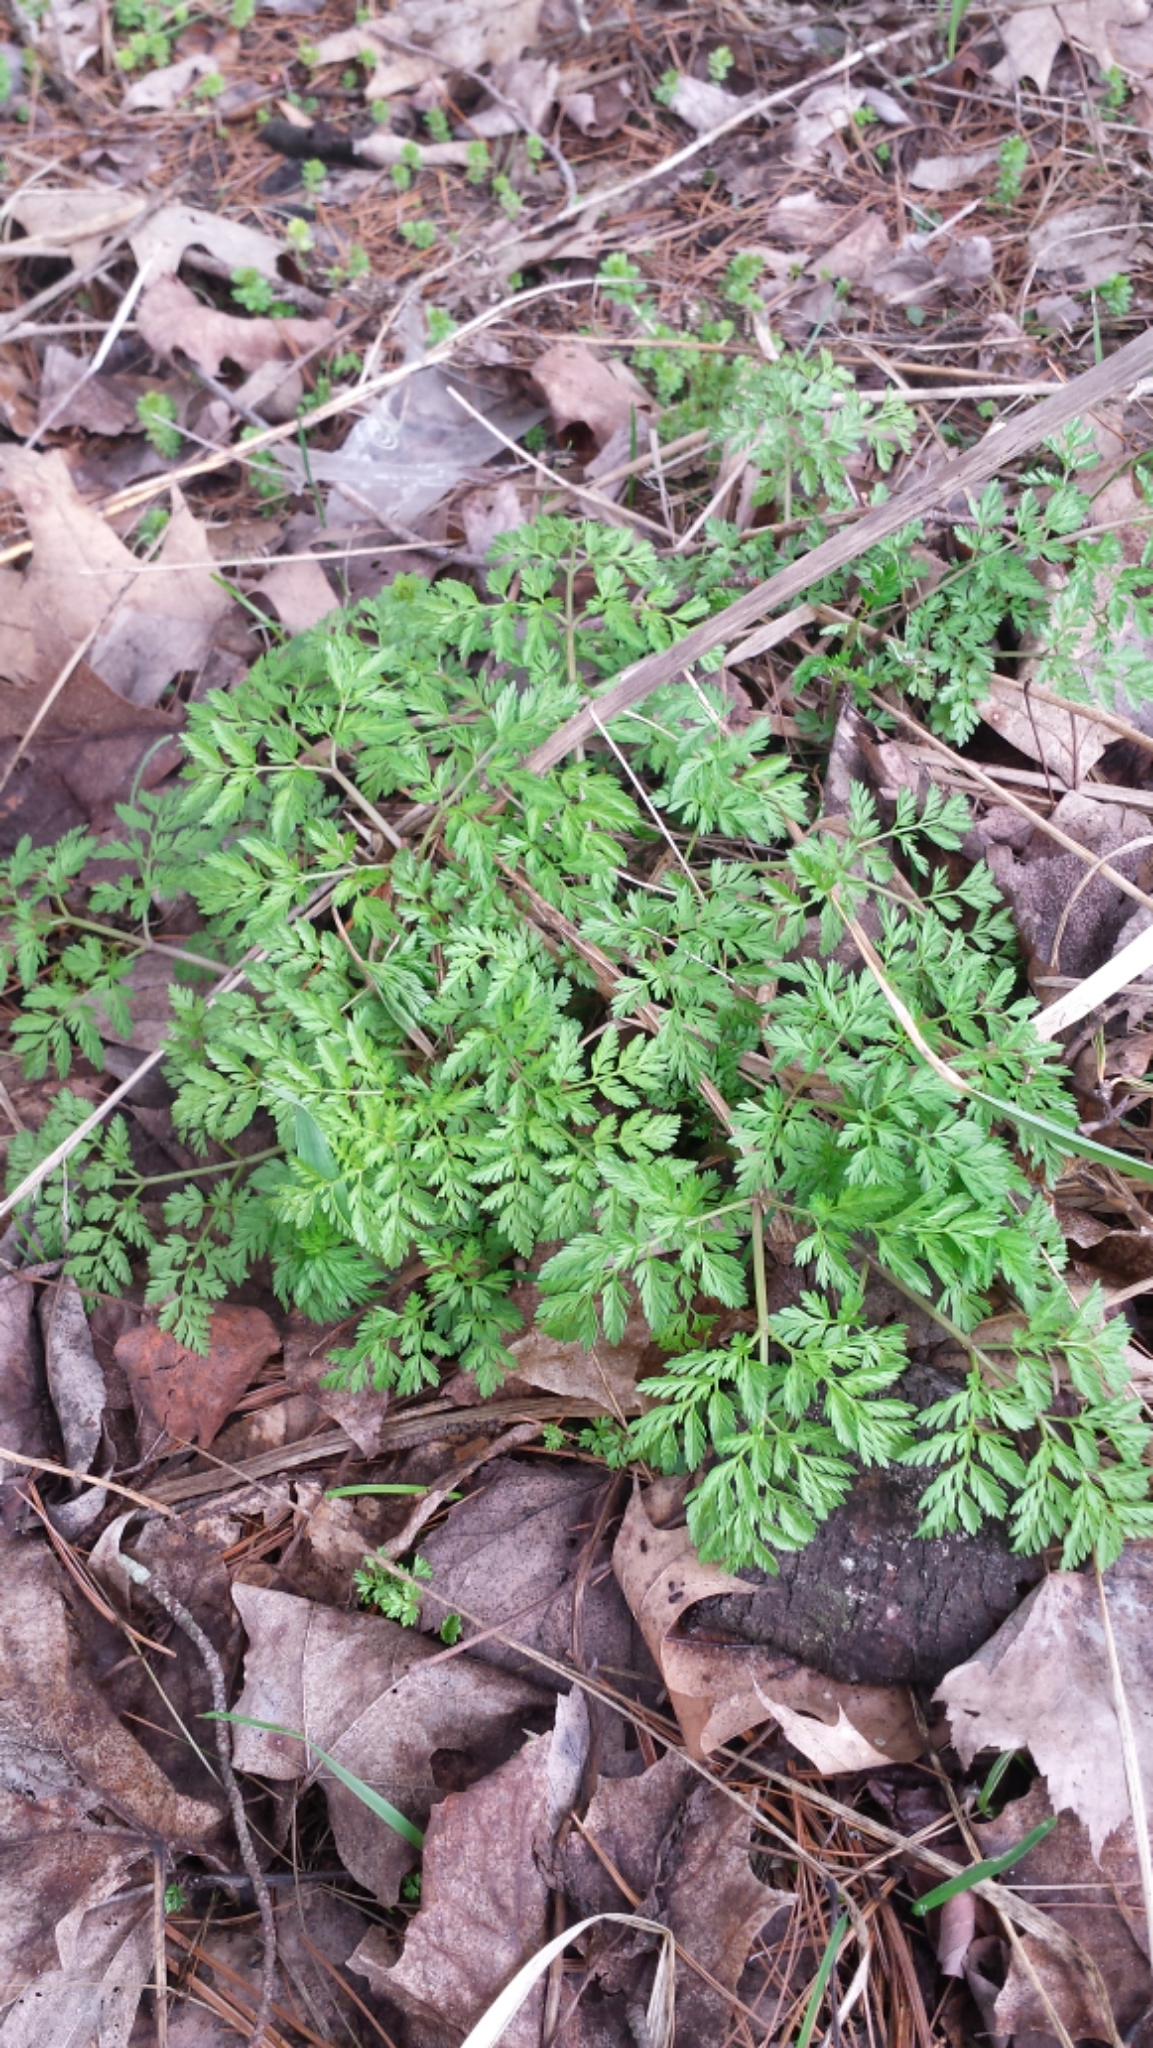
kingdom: Plantae
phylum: Tracheophyta
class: Magnoliopsida
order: Apiales
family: Apiaceae
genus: Anthriscus
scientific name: Anthriscus sylvestris
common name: Cow parsley
